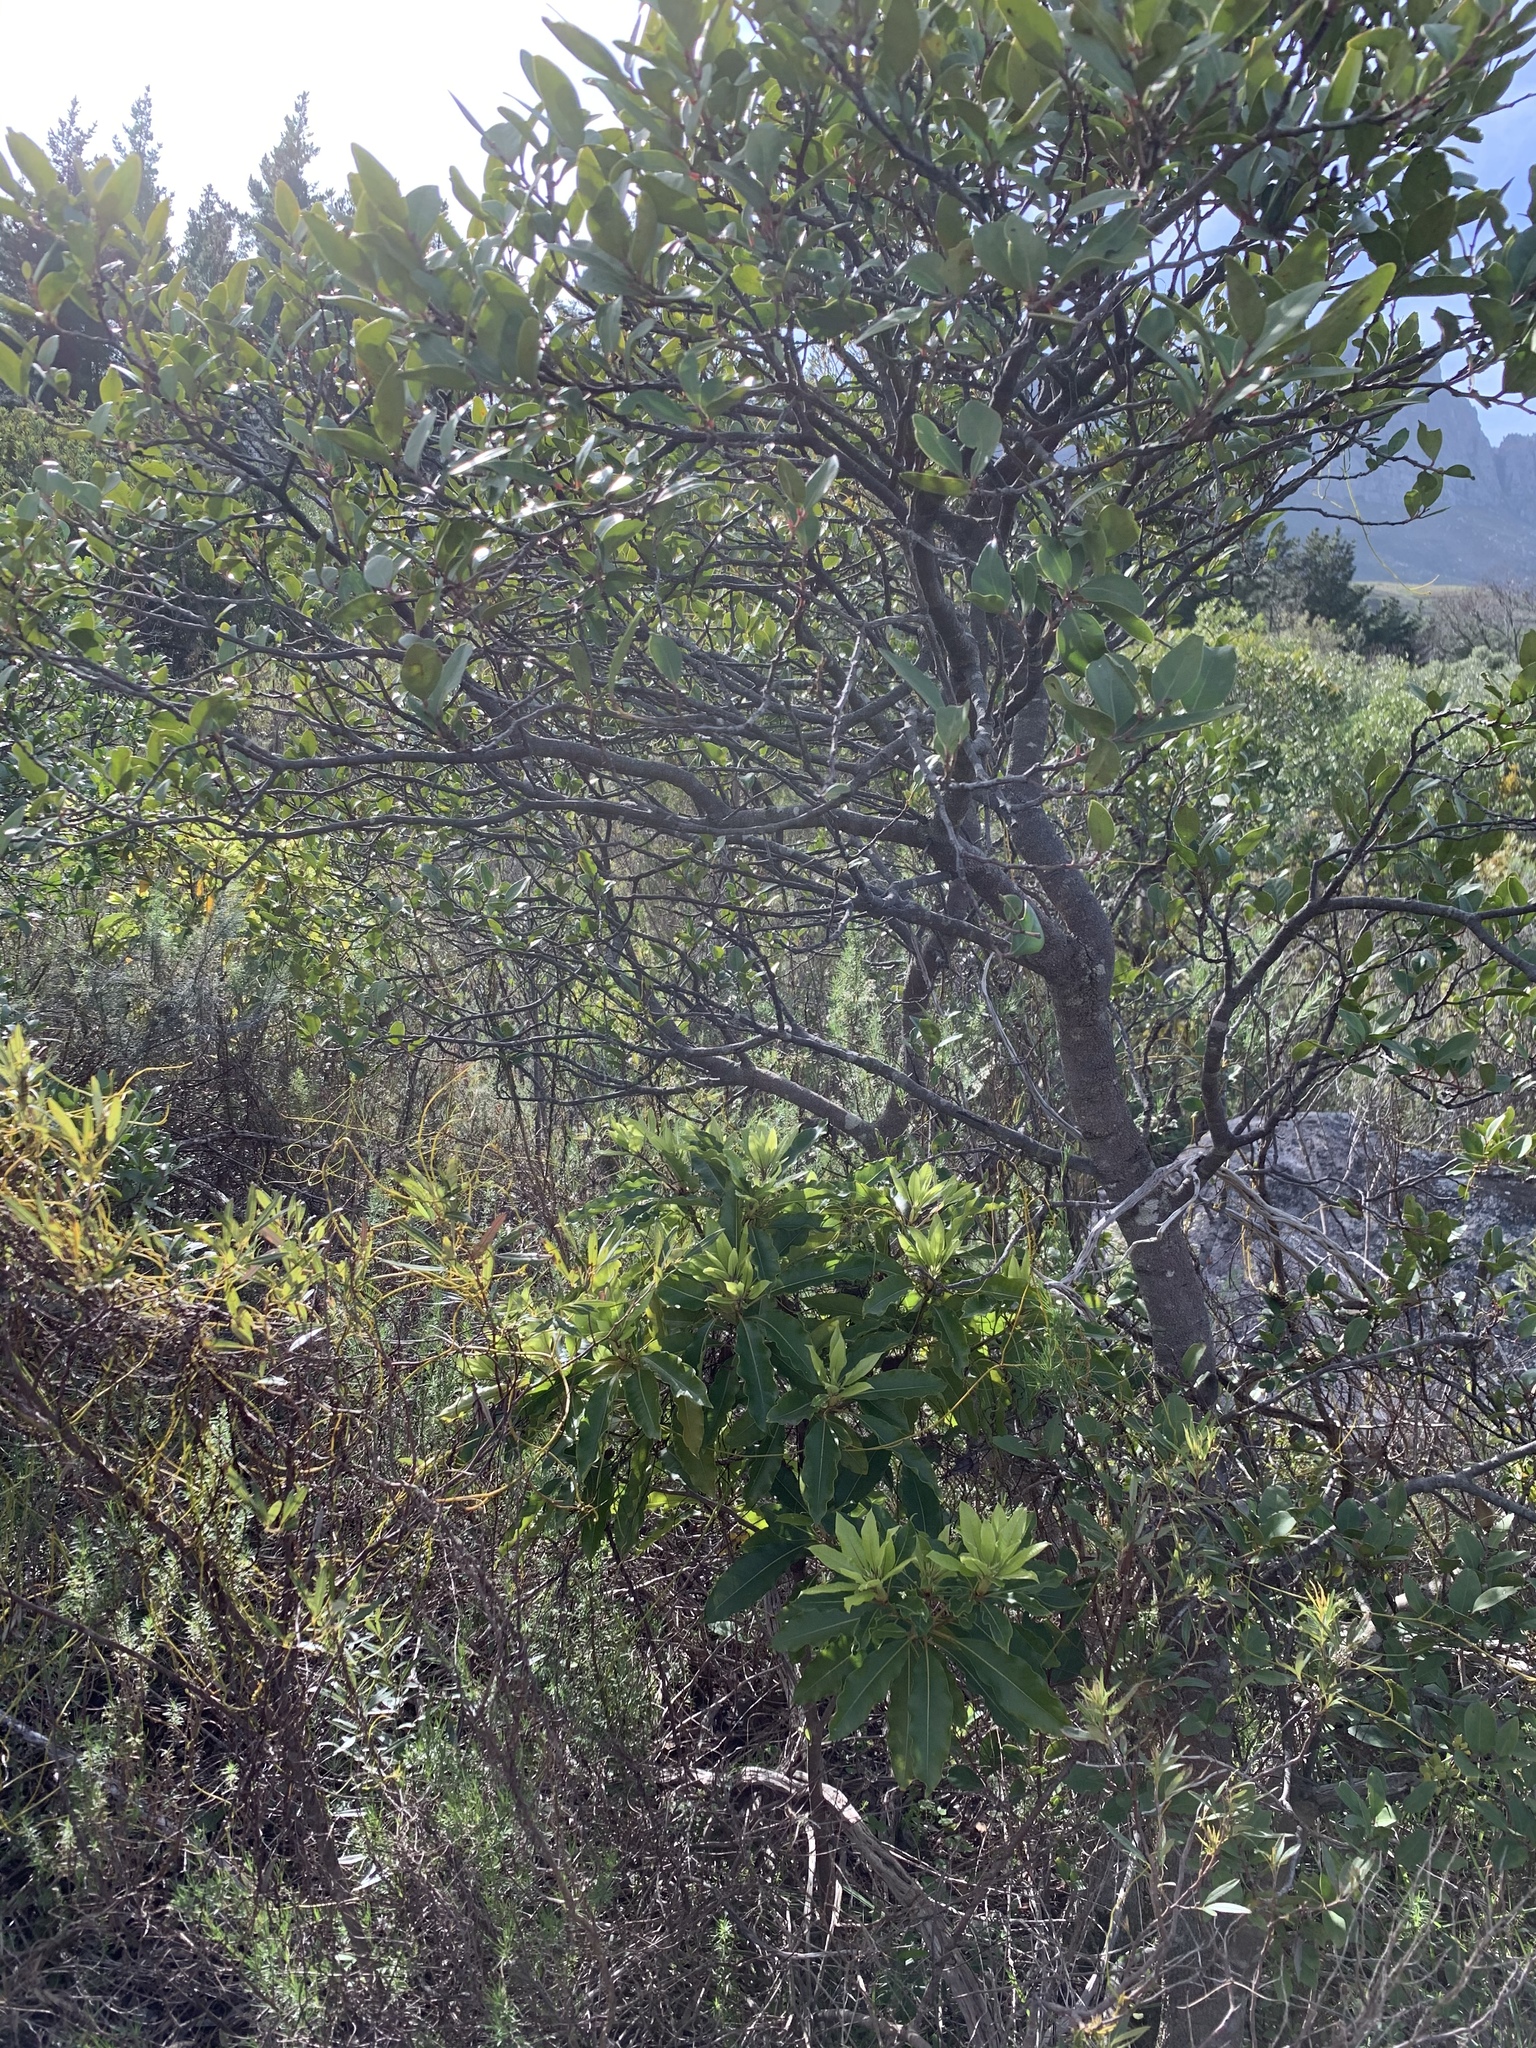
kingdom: Plantae
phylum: Tracheophyta
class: Magnoliopsida
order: Apiales
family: Pittosporaceae
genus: Pittosporum
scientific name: Pittosporum undulatum
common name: Australian cheesewood
